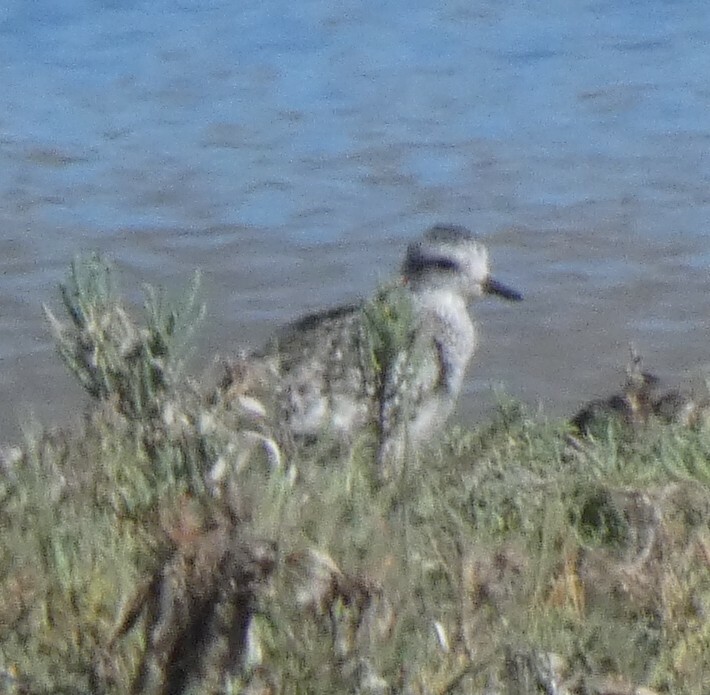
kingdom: Animalia
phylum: Chordata
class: Aves
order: Charadriiformes
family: Charadriidae
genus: Pluvialis
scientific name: Pluvialis squatarola
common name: Grey plover
